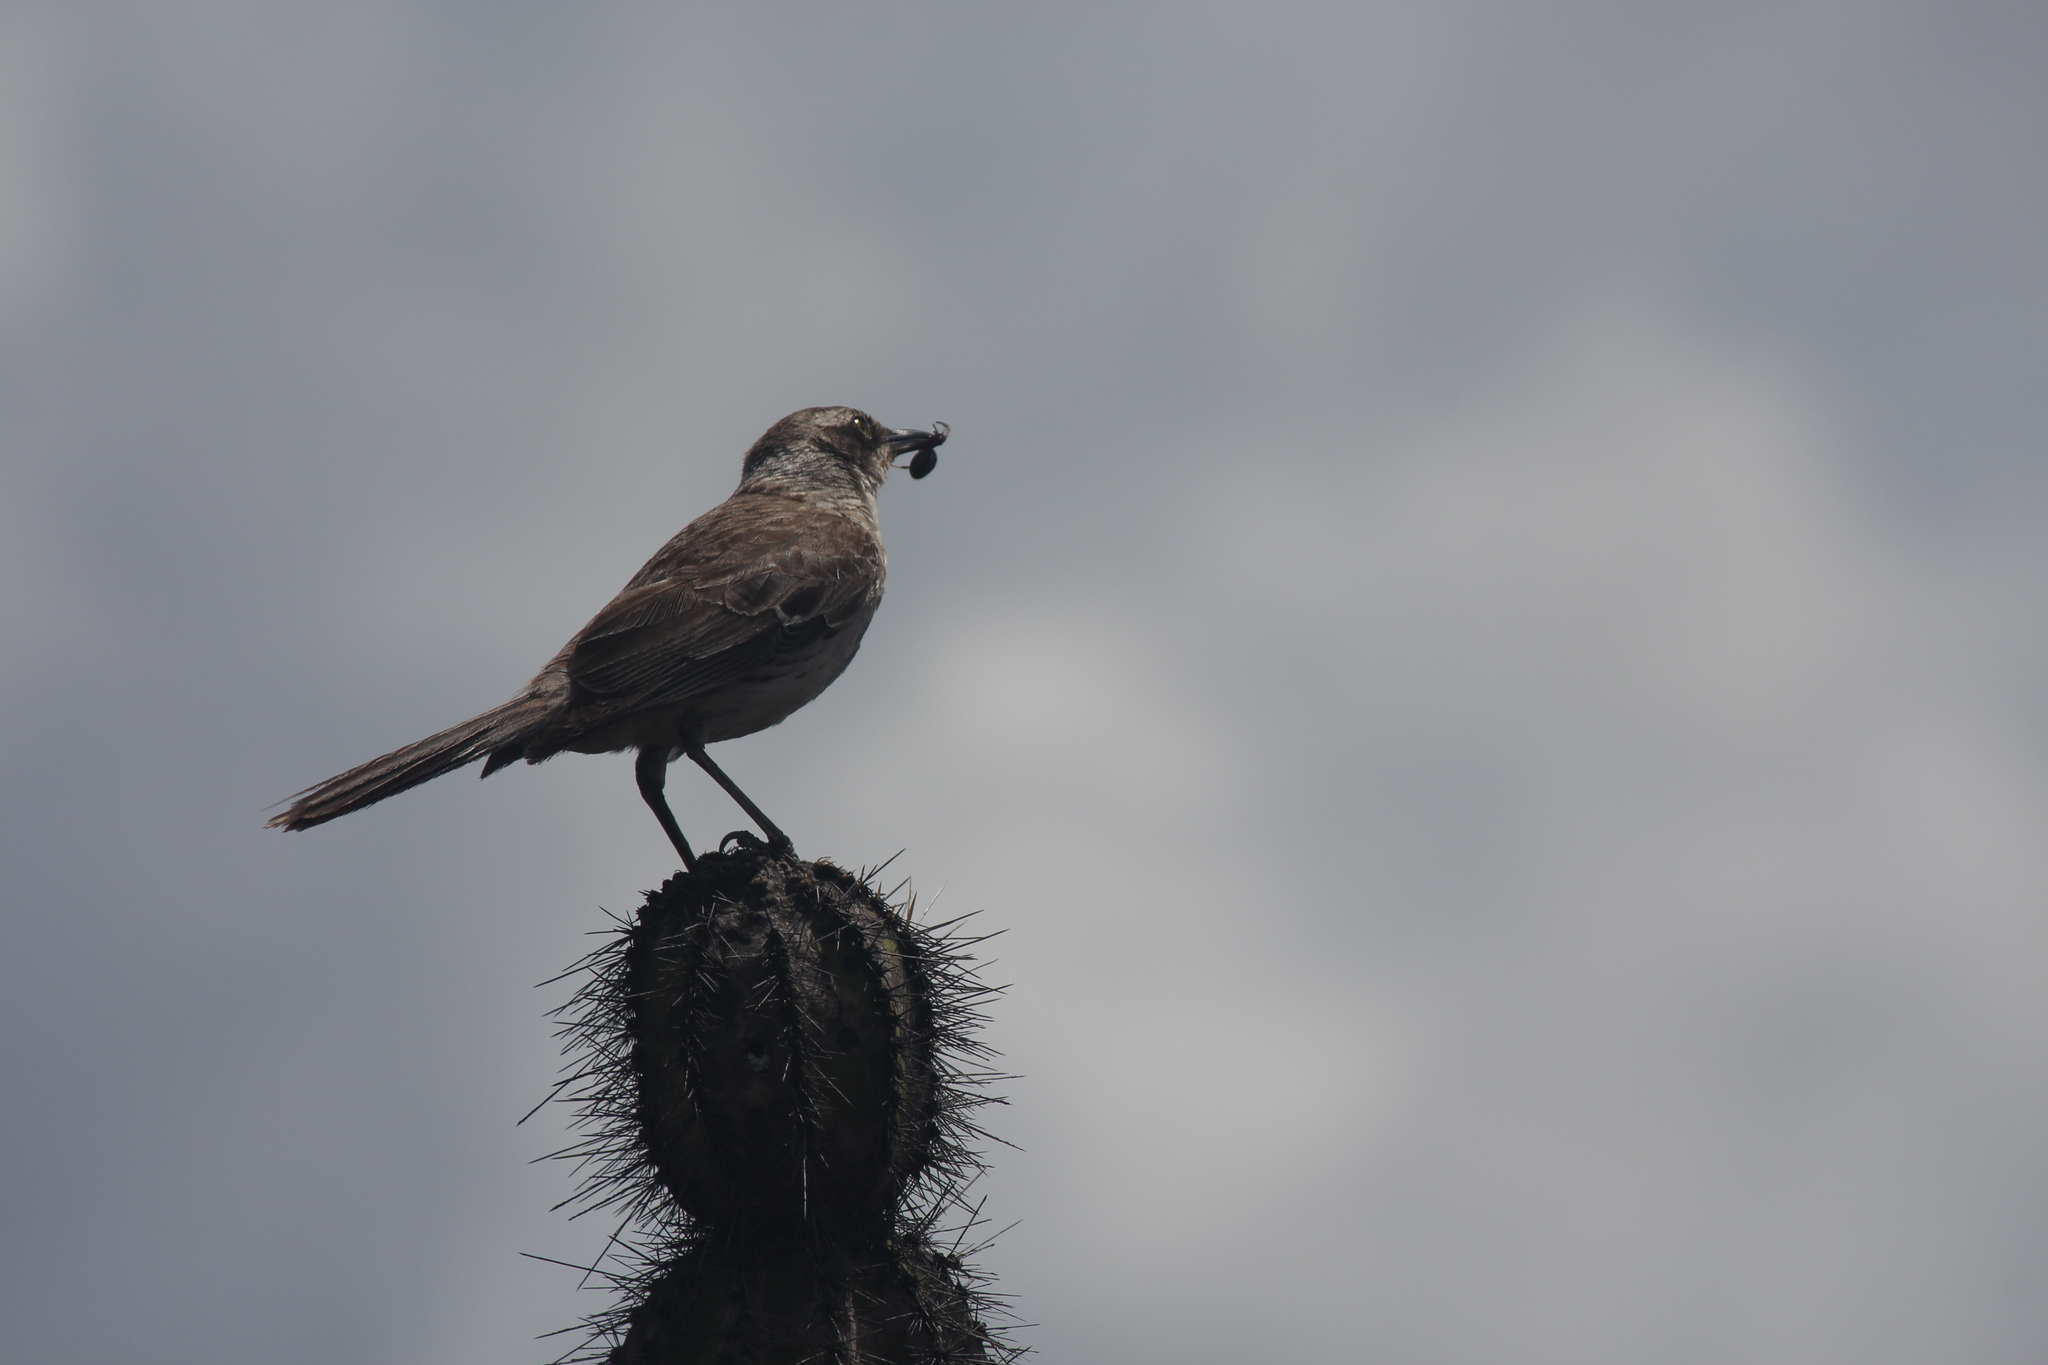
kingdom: Animalia
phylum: Chordata
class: Aves
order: Passeriformes
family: Mimidae
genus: Mimus
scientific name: Mimus parvulus
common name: Galapagos mockingbird
